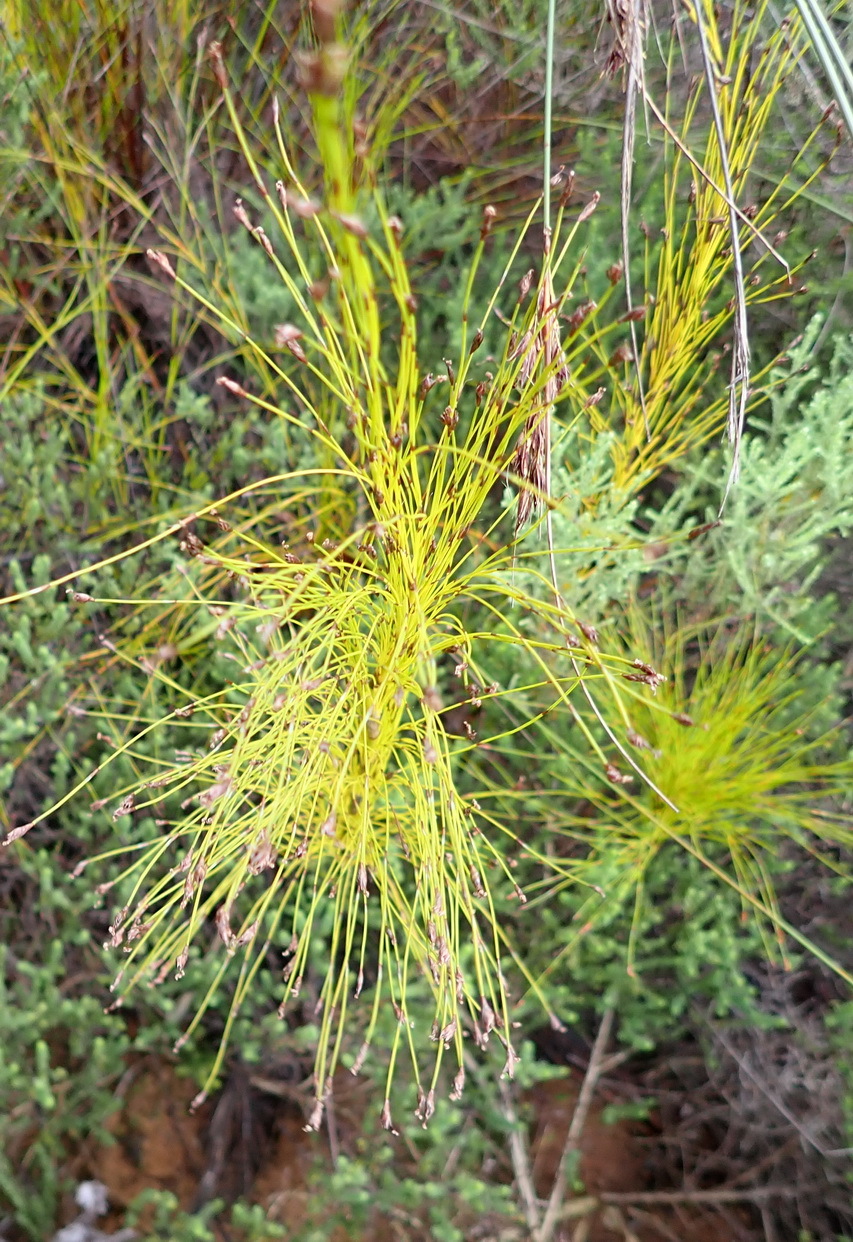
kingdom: Plantae
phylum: Tracheophyta
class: Liliopsida
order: Poales
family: Restionaceae
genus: Restio
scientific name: Restio leptoclados
